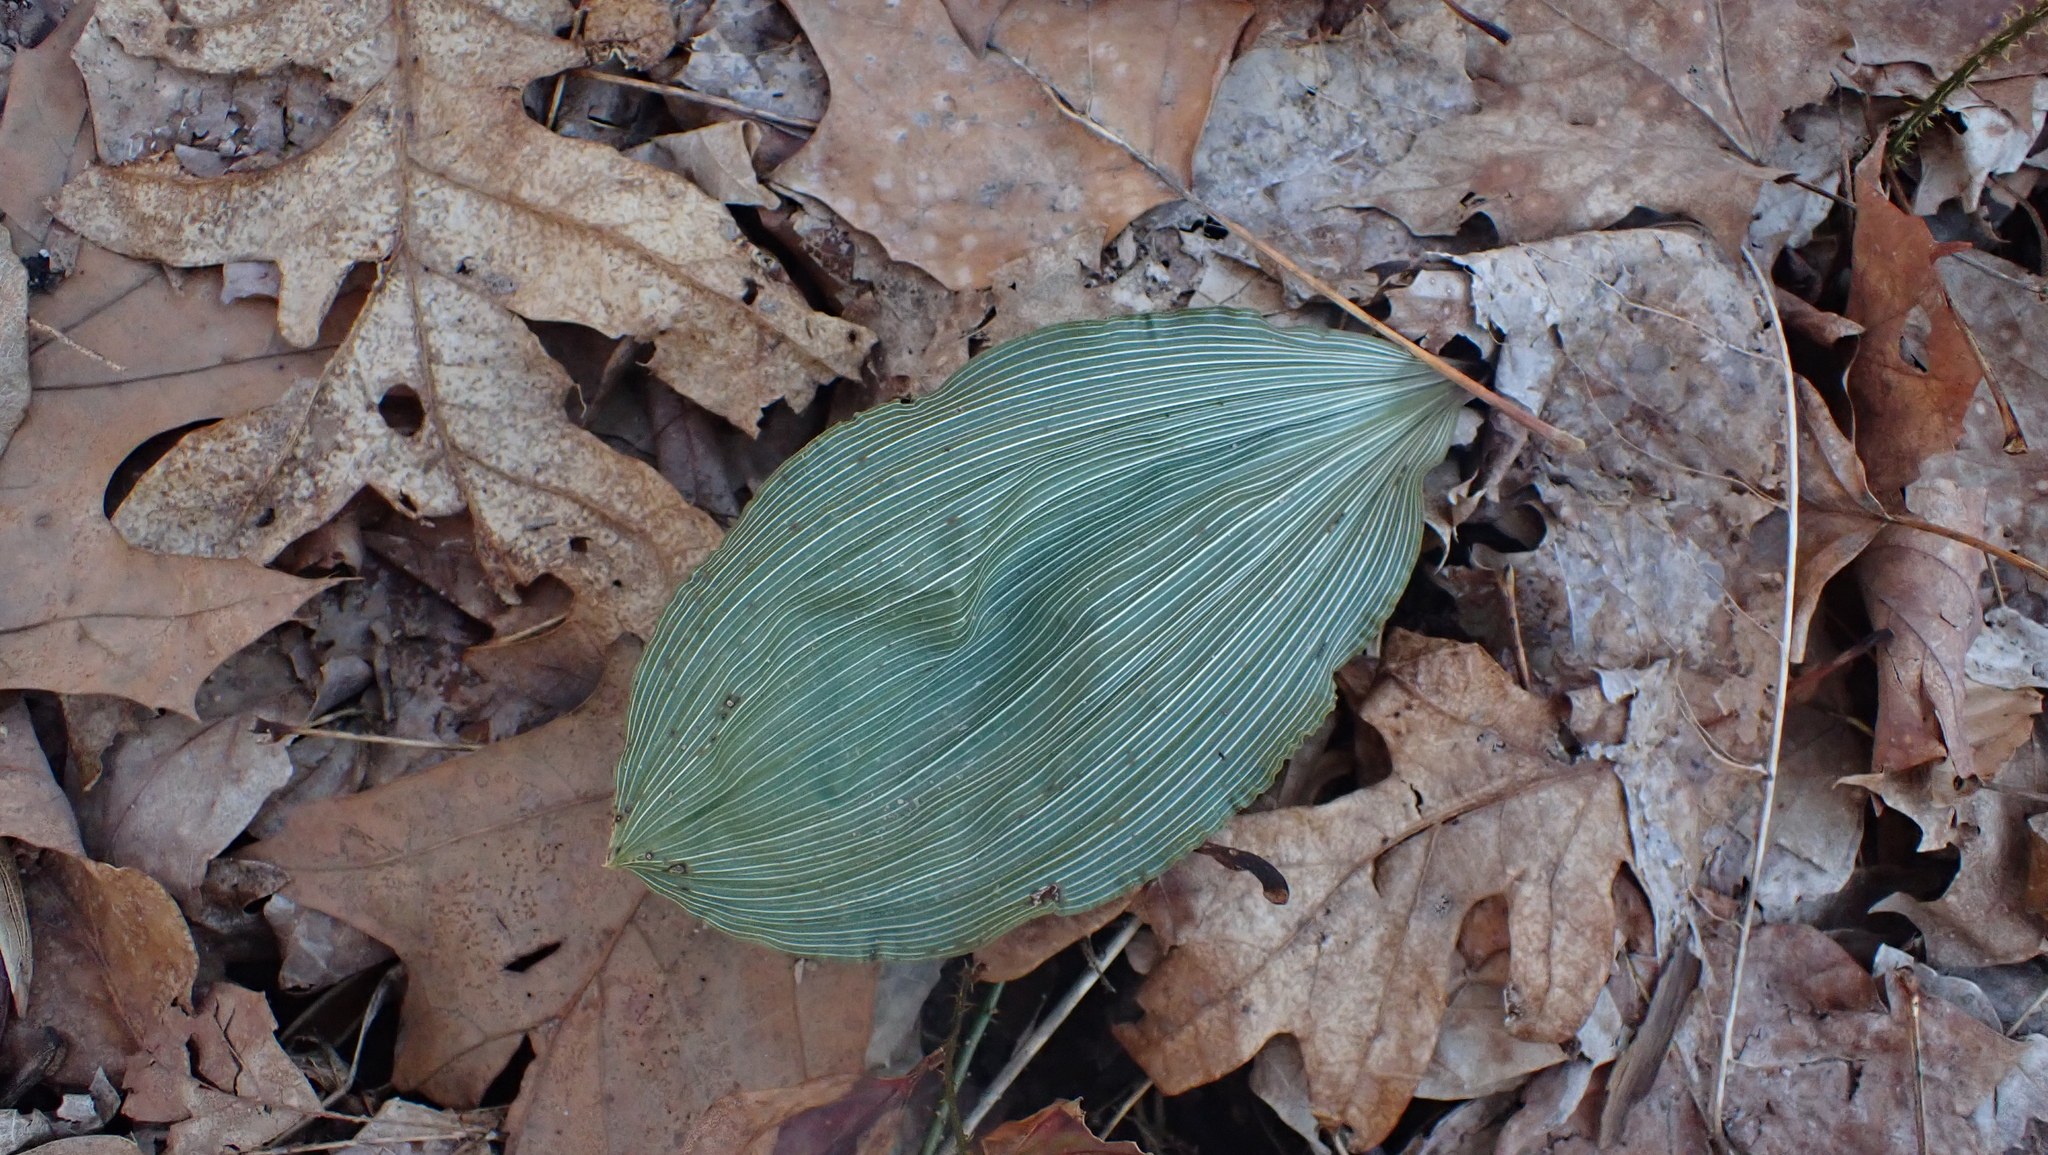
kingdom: Plantae
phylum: Tracheophyta
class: Liliopsida
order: Asparagales
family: Orchidaceae
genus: Aplectrum
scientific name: Aplectrum hyemale
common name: Adam-and-eve
